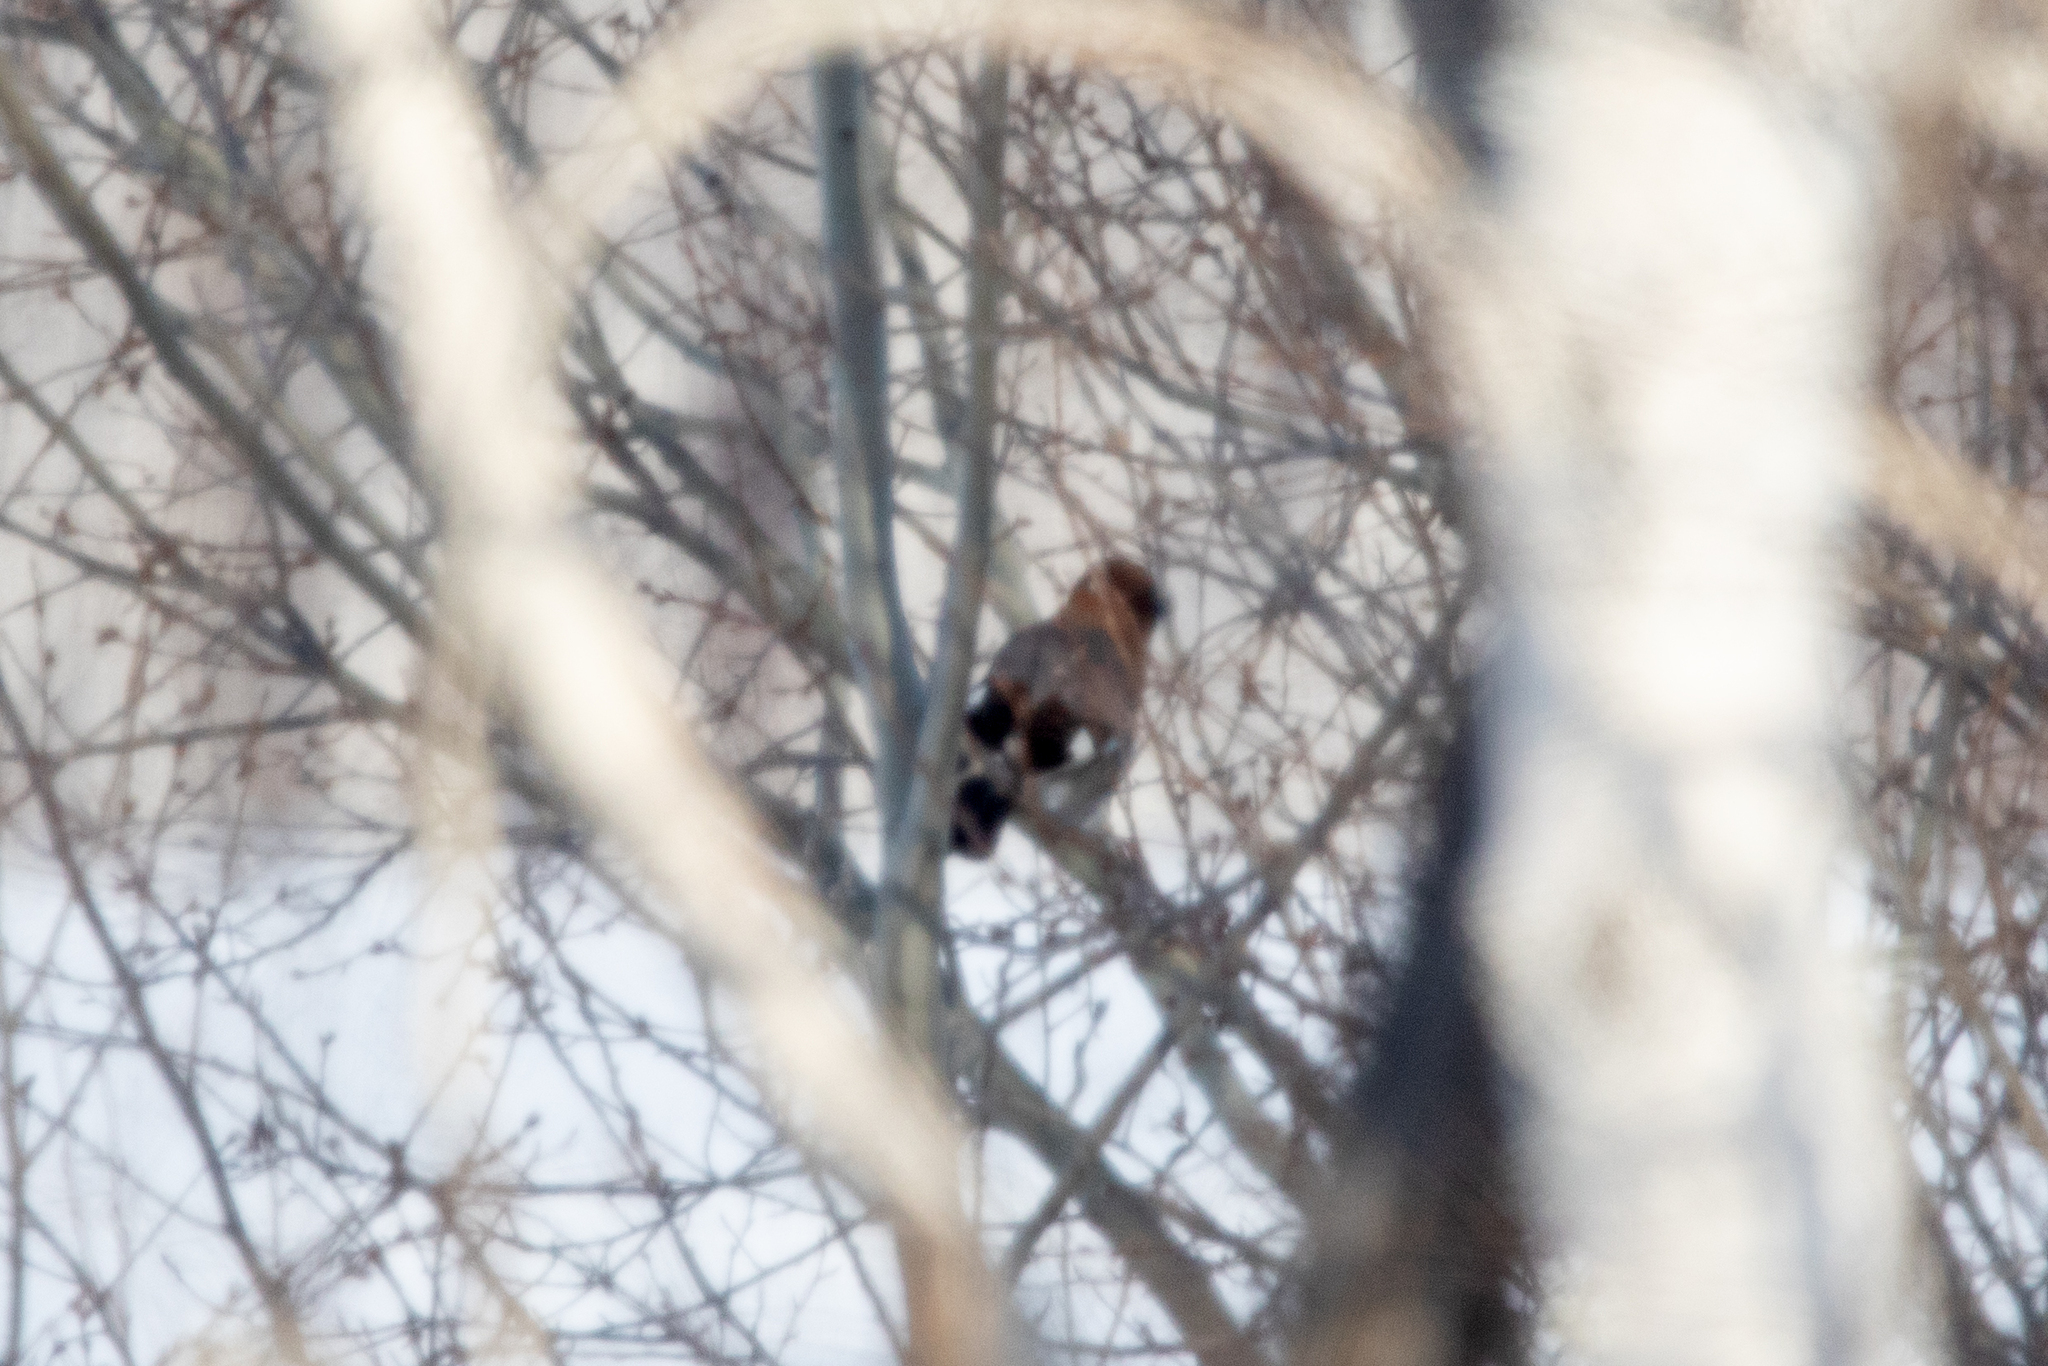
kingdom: Animalia
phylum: Chordata
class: Aves
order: Passeriformes
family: Corvidae
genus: Garrulus
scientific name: Garrulus glandarius
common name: Eurasian jay
